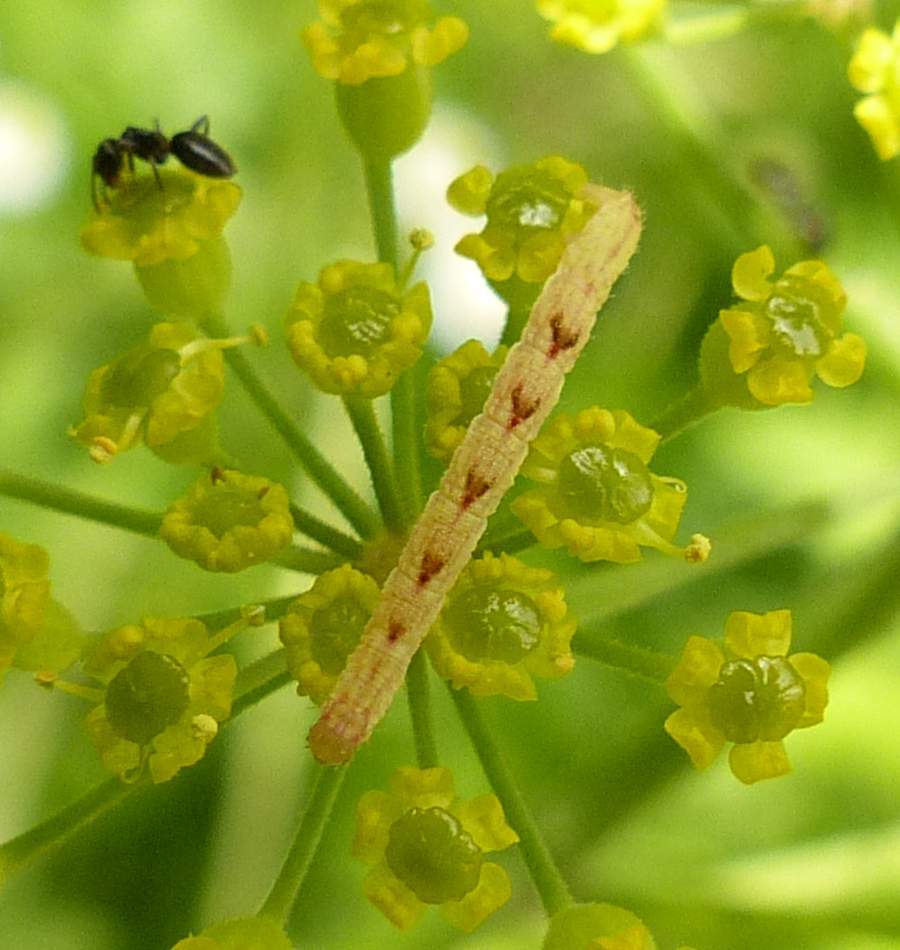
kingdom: Animalia
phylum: Arthropoda
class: Insecta
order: Lepidoptera
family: Geometridae
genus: Eupithecia
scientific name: Eupithecia miserulata
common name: Common eupithecia
